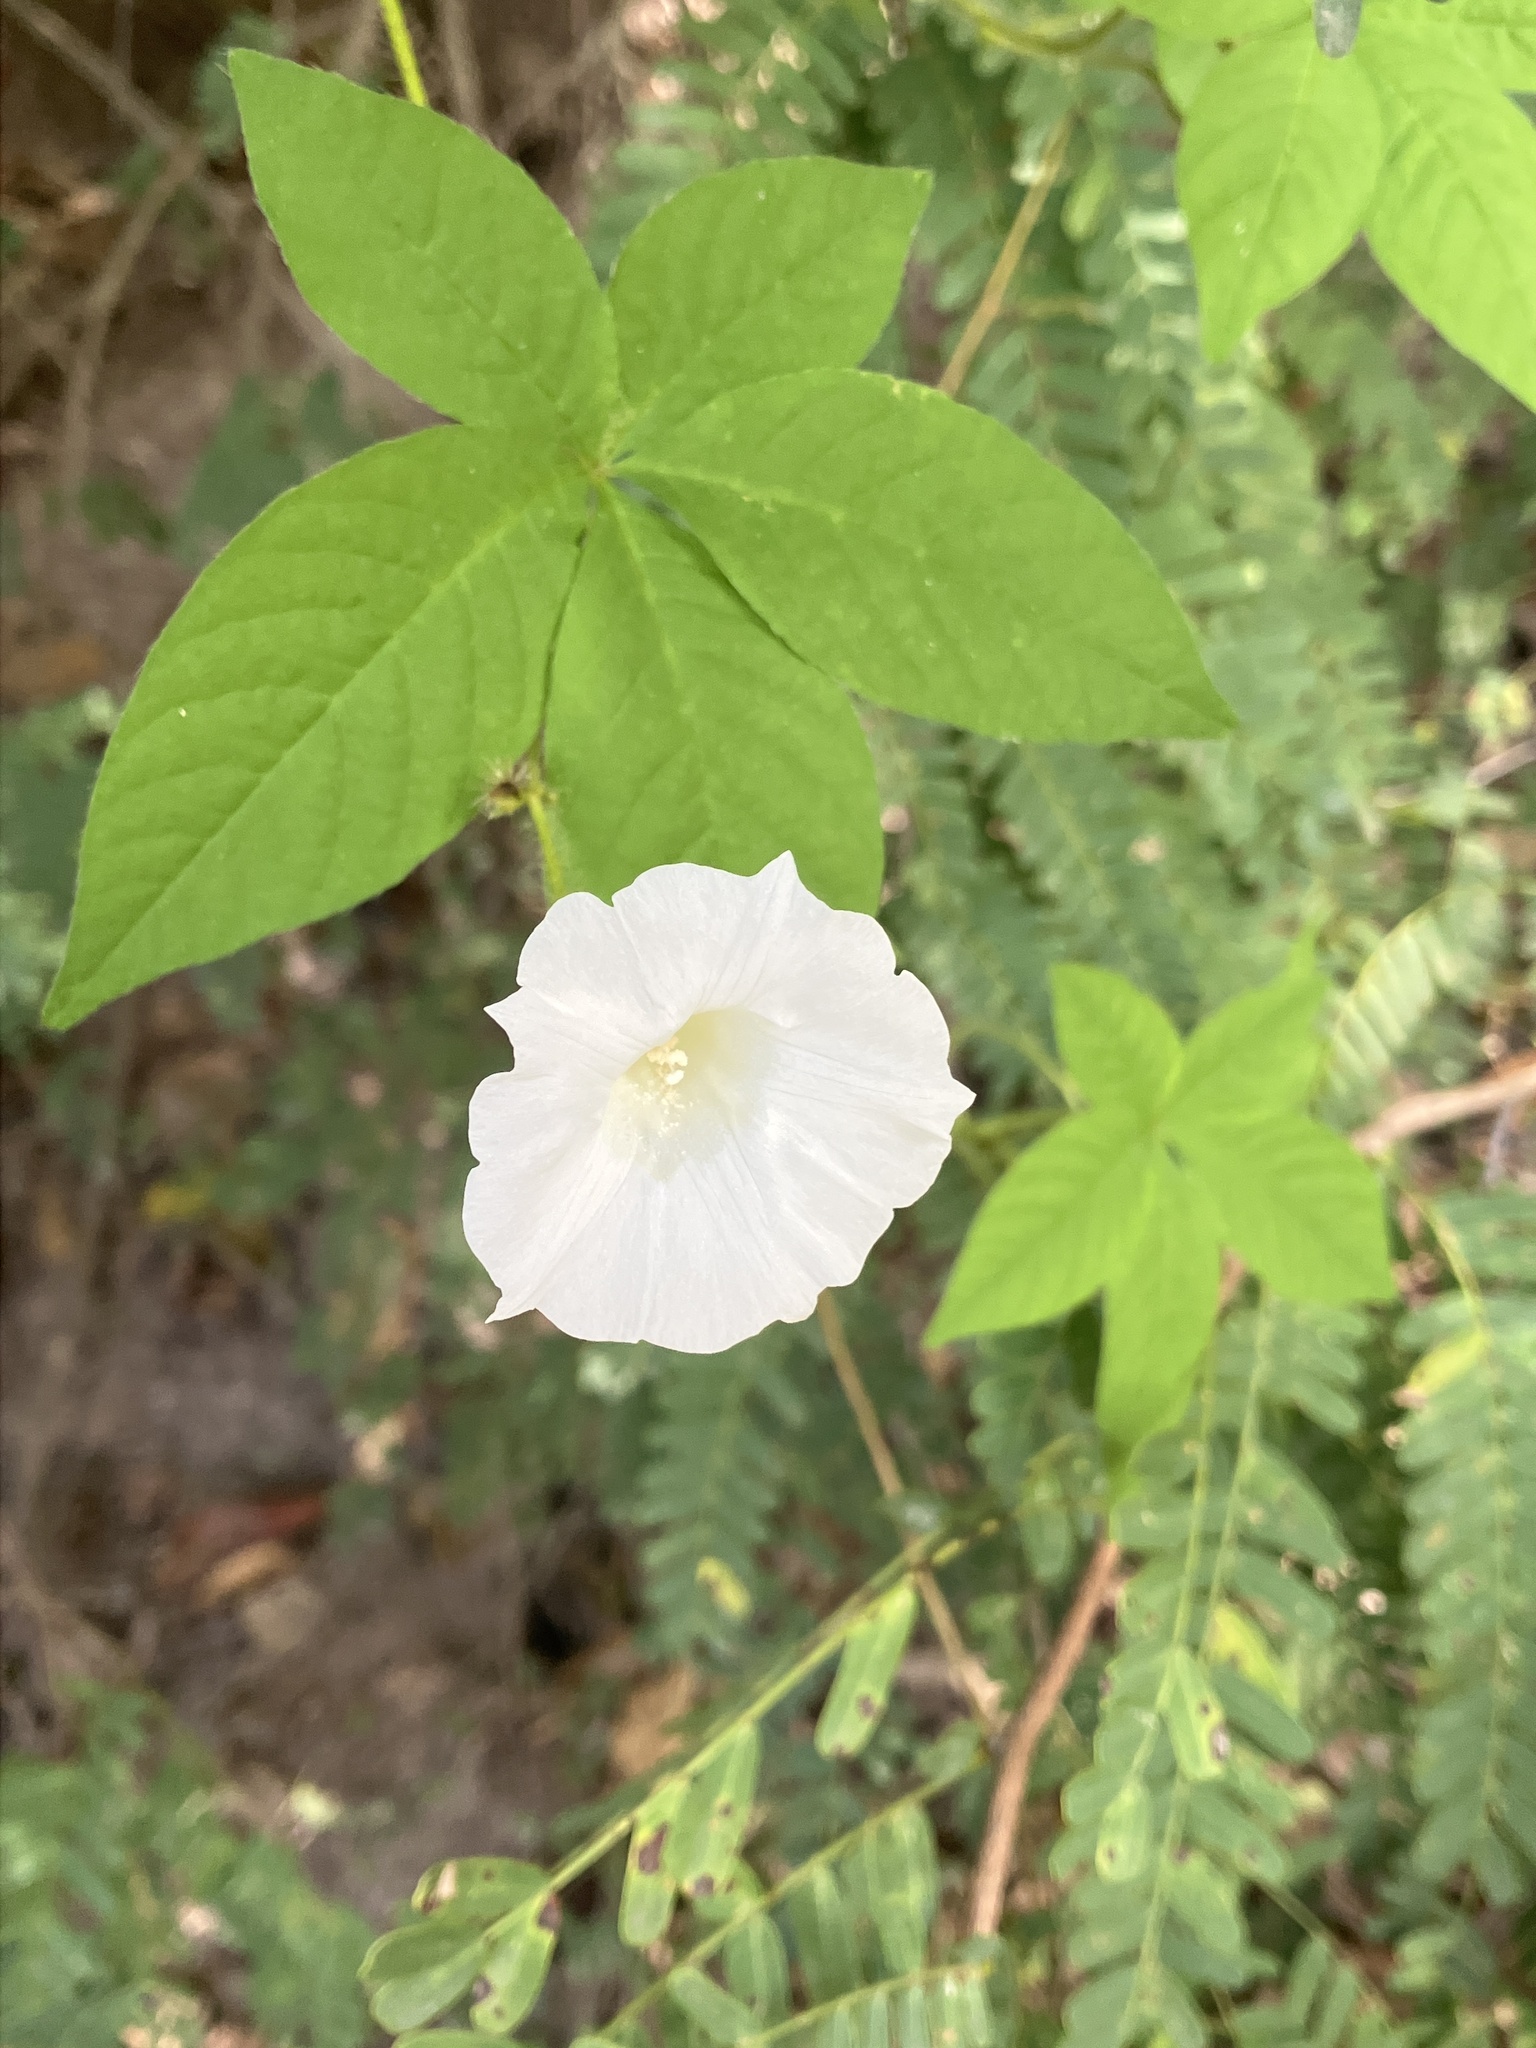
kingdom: Plantae
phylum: Tracheophyta
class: Magnoliopsida
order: Solanales
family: Convolvulaceae
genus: Distimake
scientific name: Distimake aegyptius
